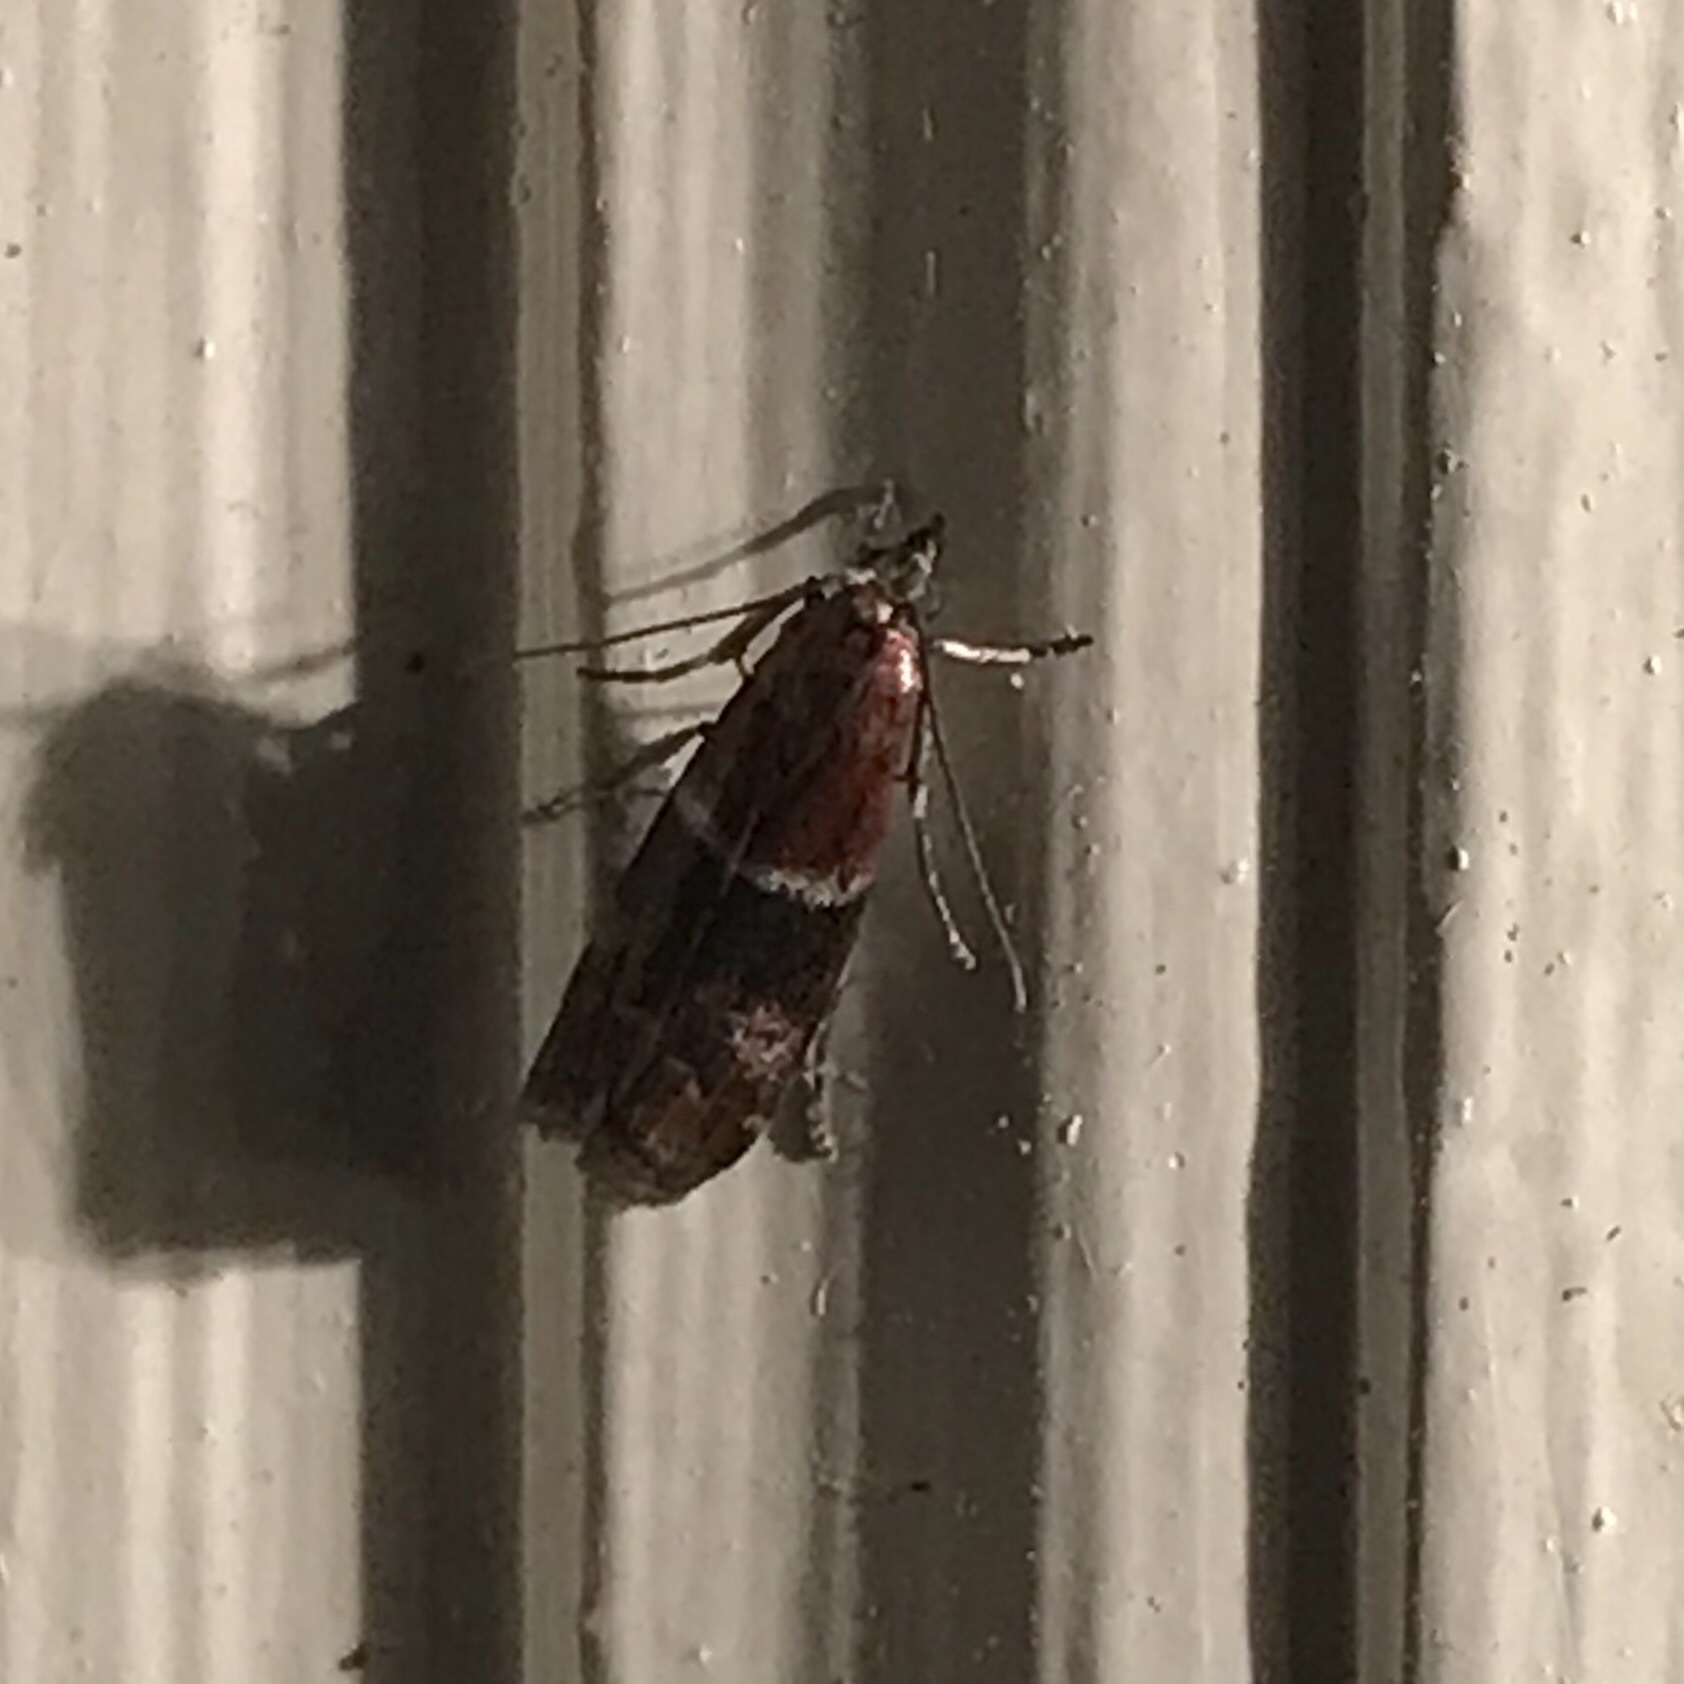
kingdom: Animalia
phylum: Arthropoda
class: Insecta
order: Lepidoptera
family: Pyralidae
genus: Moodna
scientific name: Moodna ostrinella
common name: Darker moodna moth
